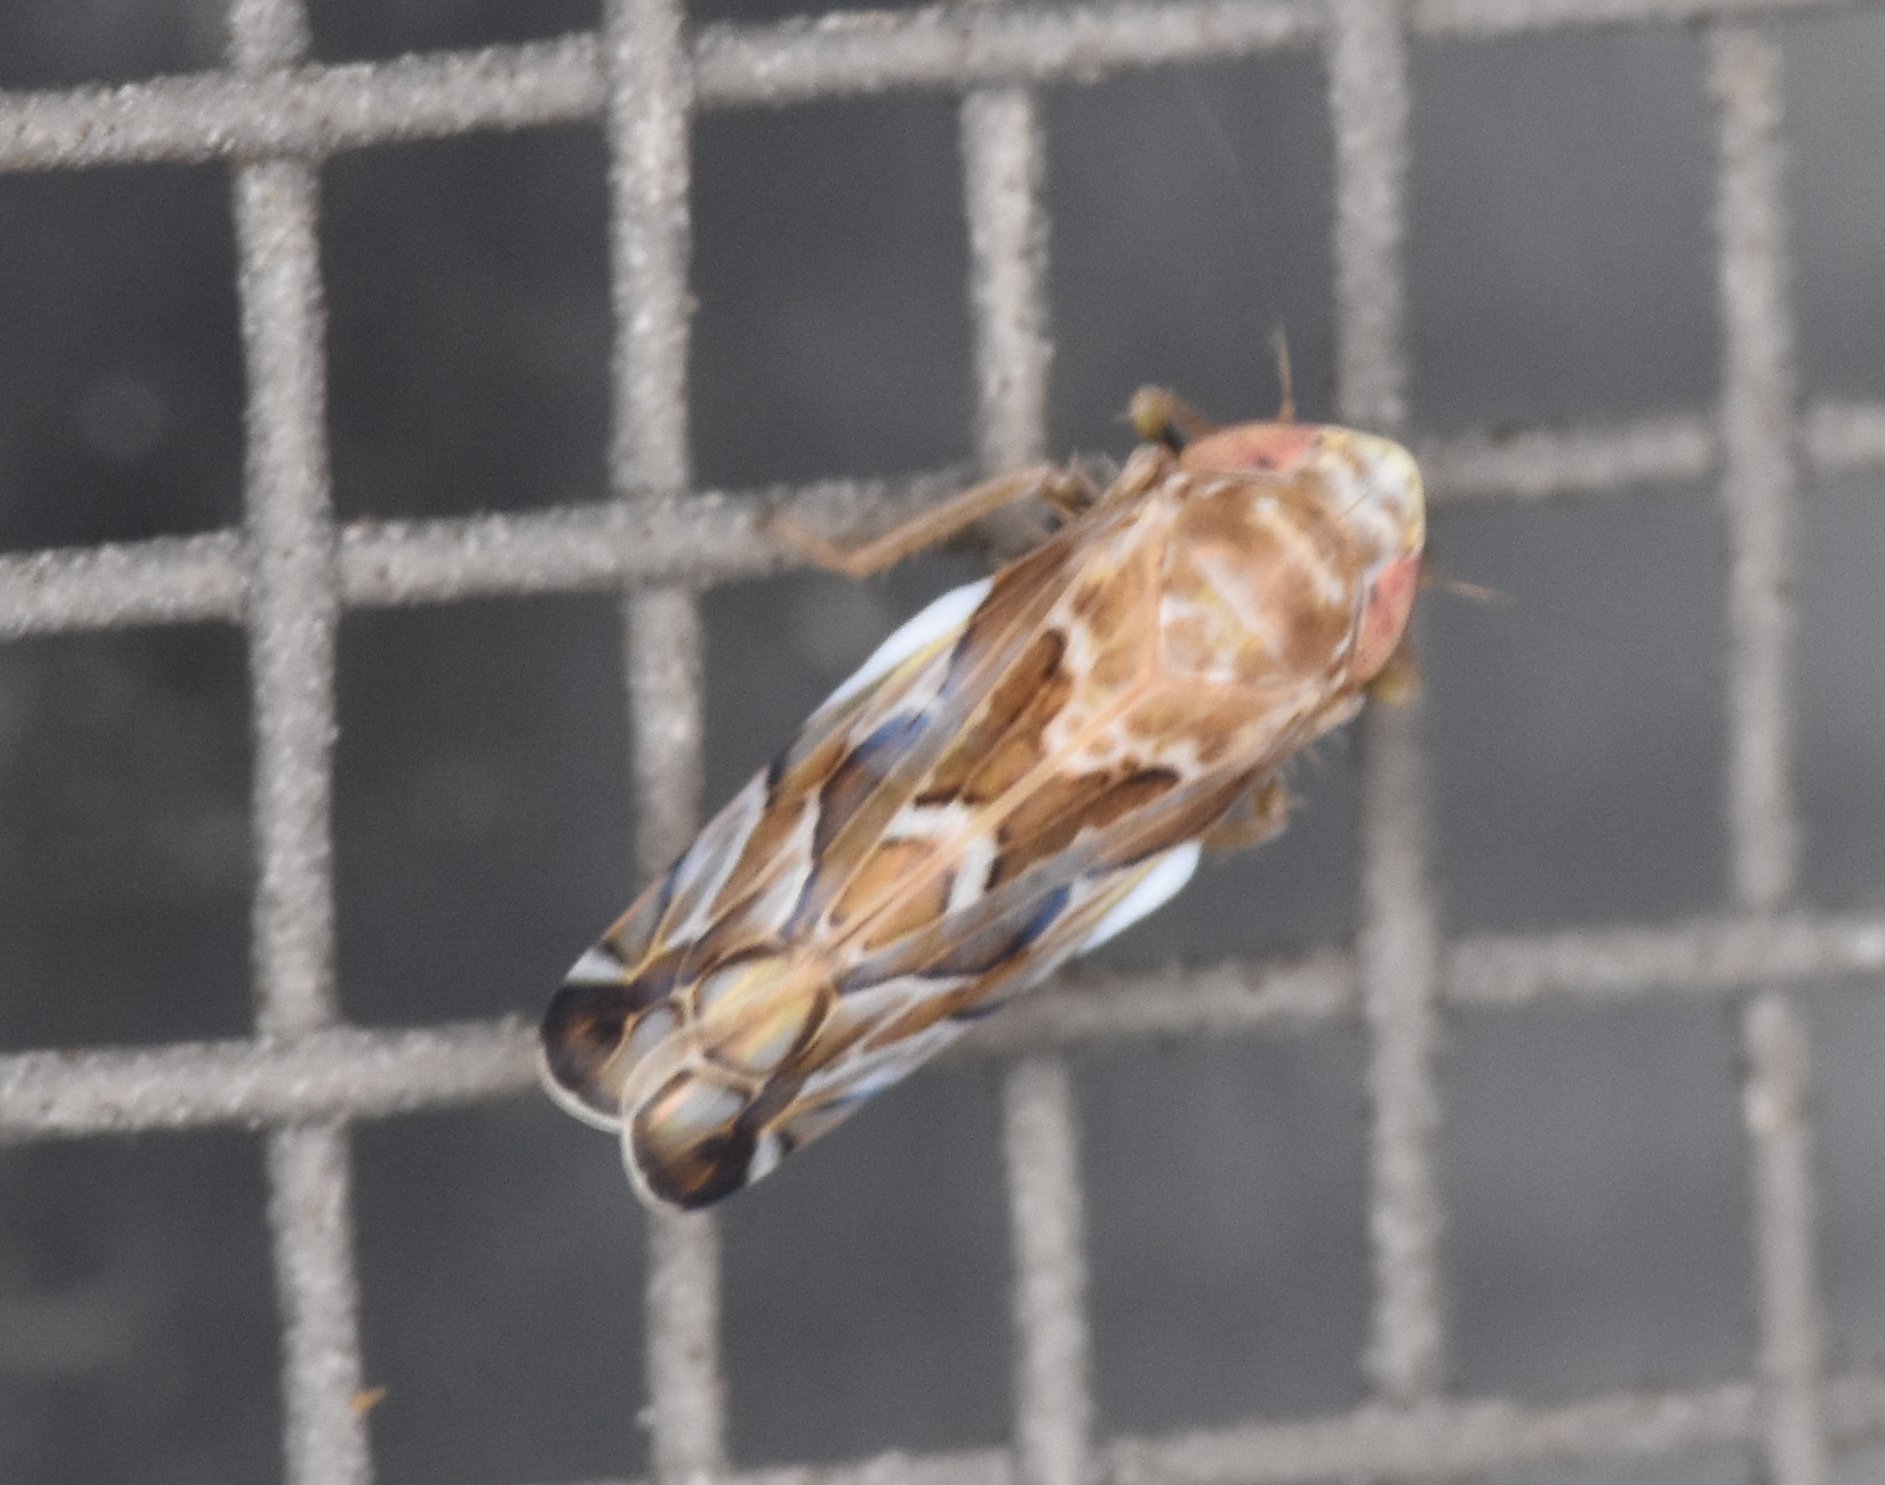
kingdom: Animalia
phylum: Arthropoda
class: Insecta
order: Hemiptera
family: Cicadellidae
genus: Sanctanus
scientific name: Sanctanus fasciatus
